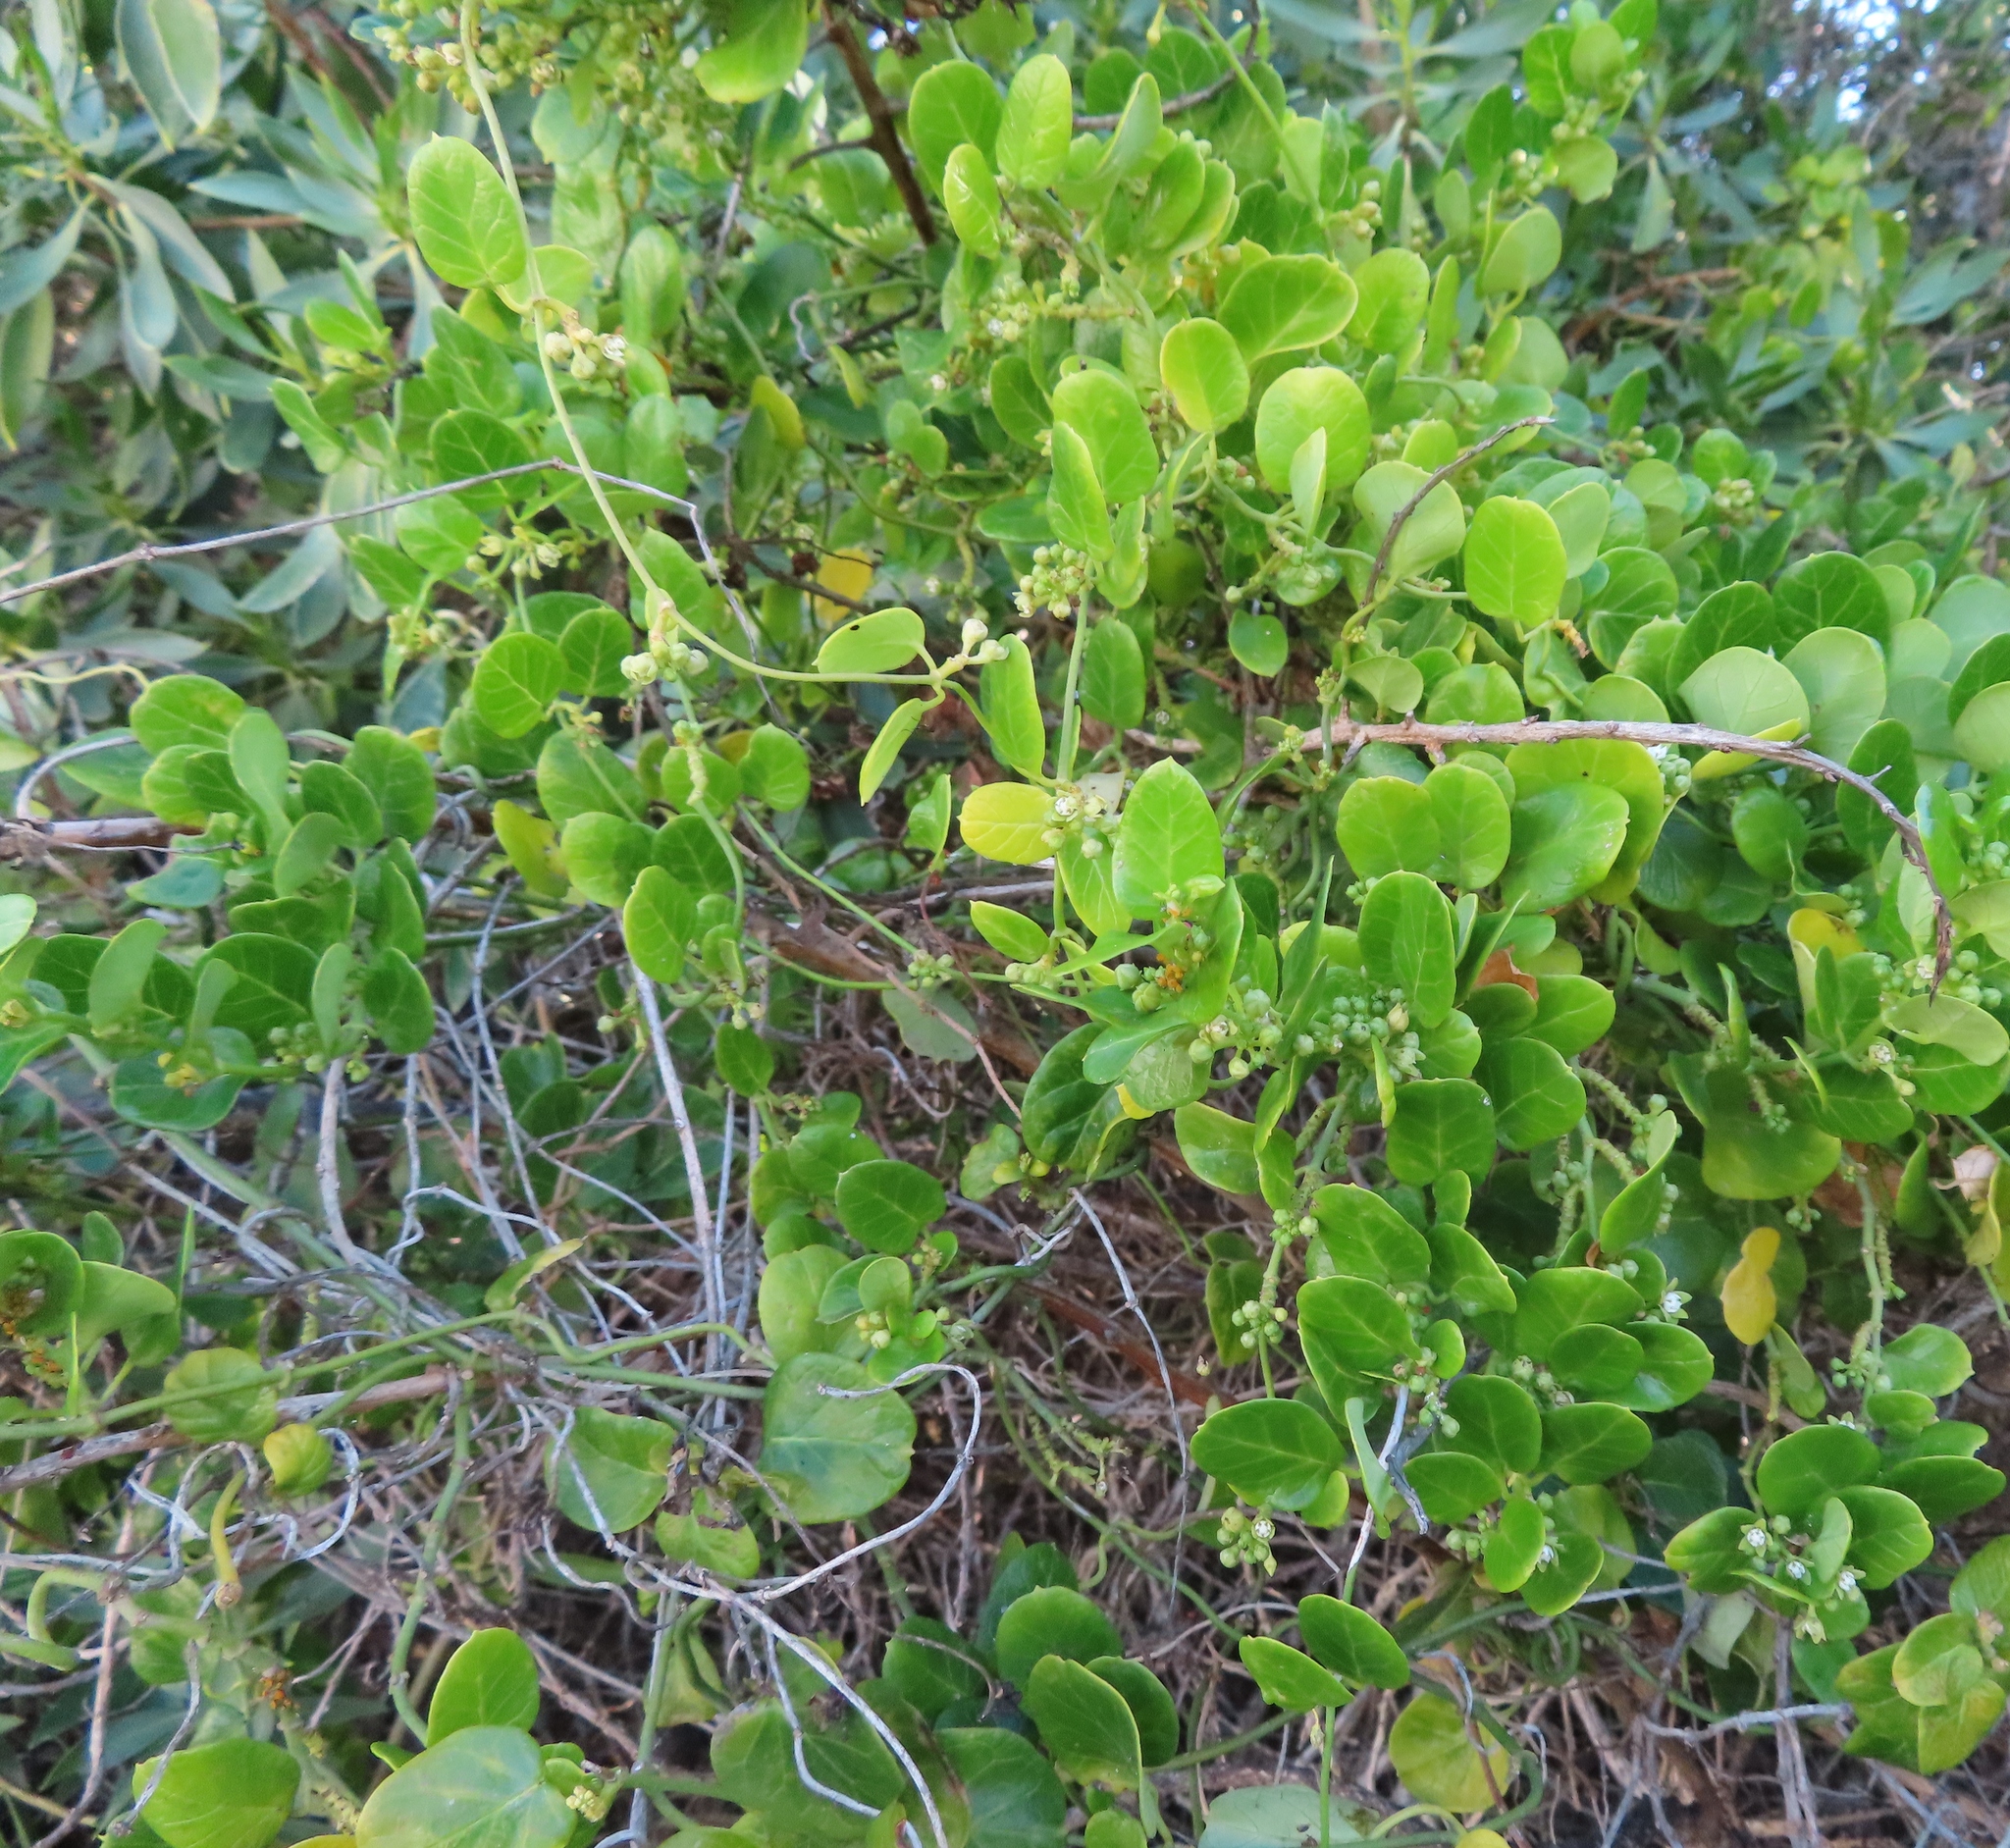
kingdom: Plantae
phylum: Tracheophyta
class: Magnoliopsida
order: Gentianales
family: Apocynaceae
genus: Cynanchum
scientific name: Cynanchum obtusifolium
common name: Monkey-rope
